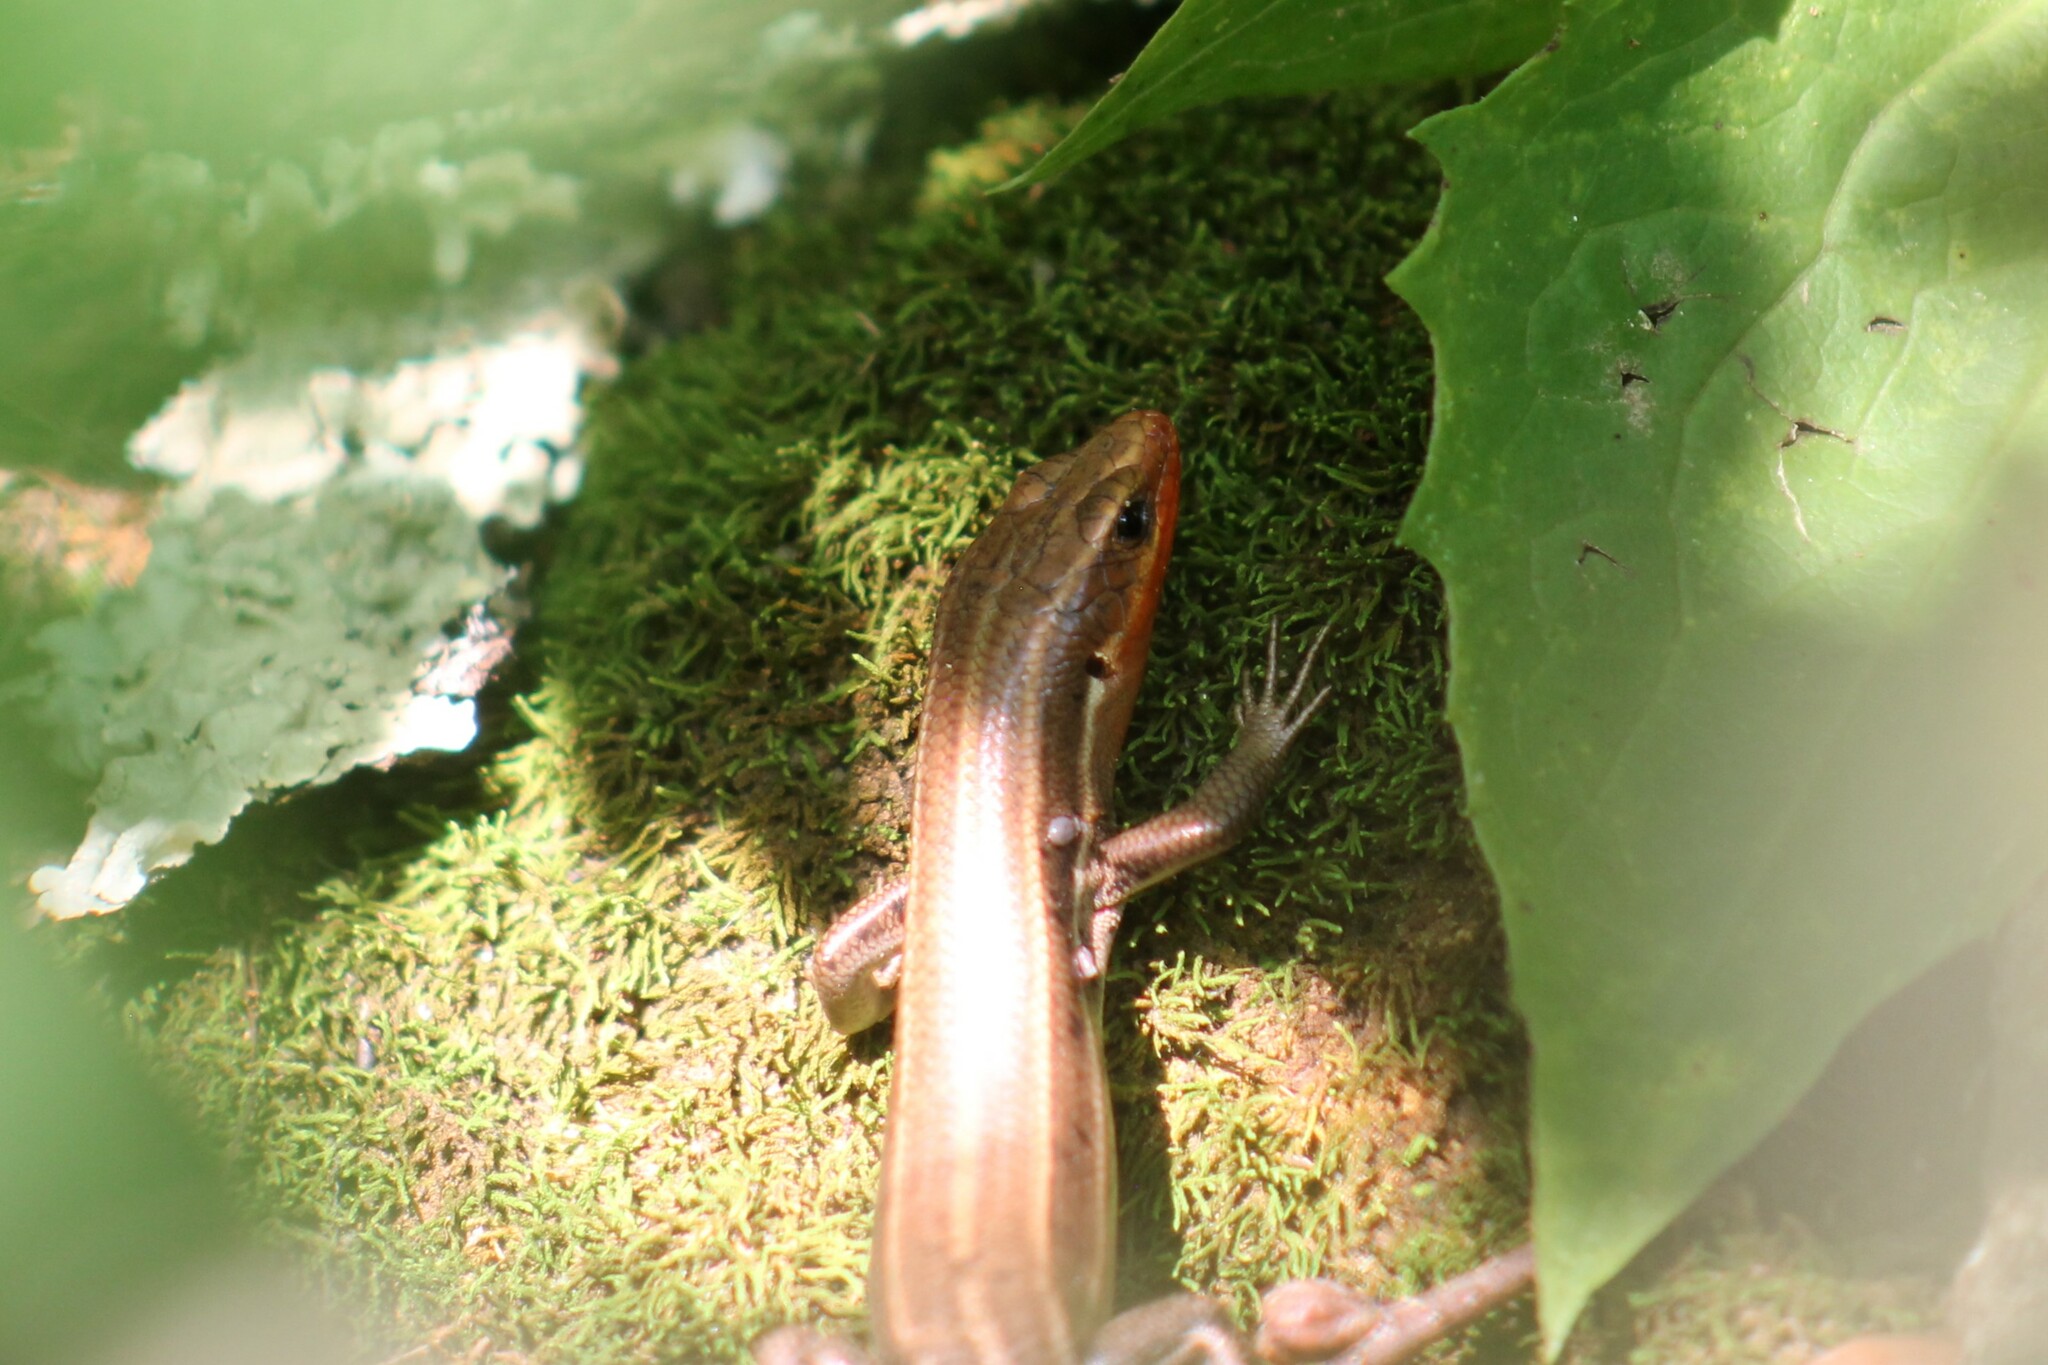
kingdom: Animalia
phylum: Chordata
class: Squamata
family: Scincidae
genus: Plestiodon
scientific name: Plestiodon fasciatus
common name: Five-lined skink
